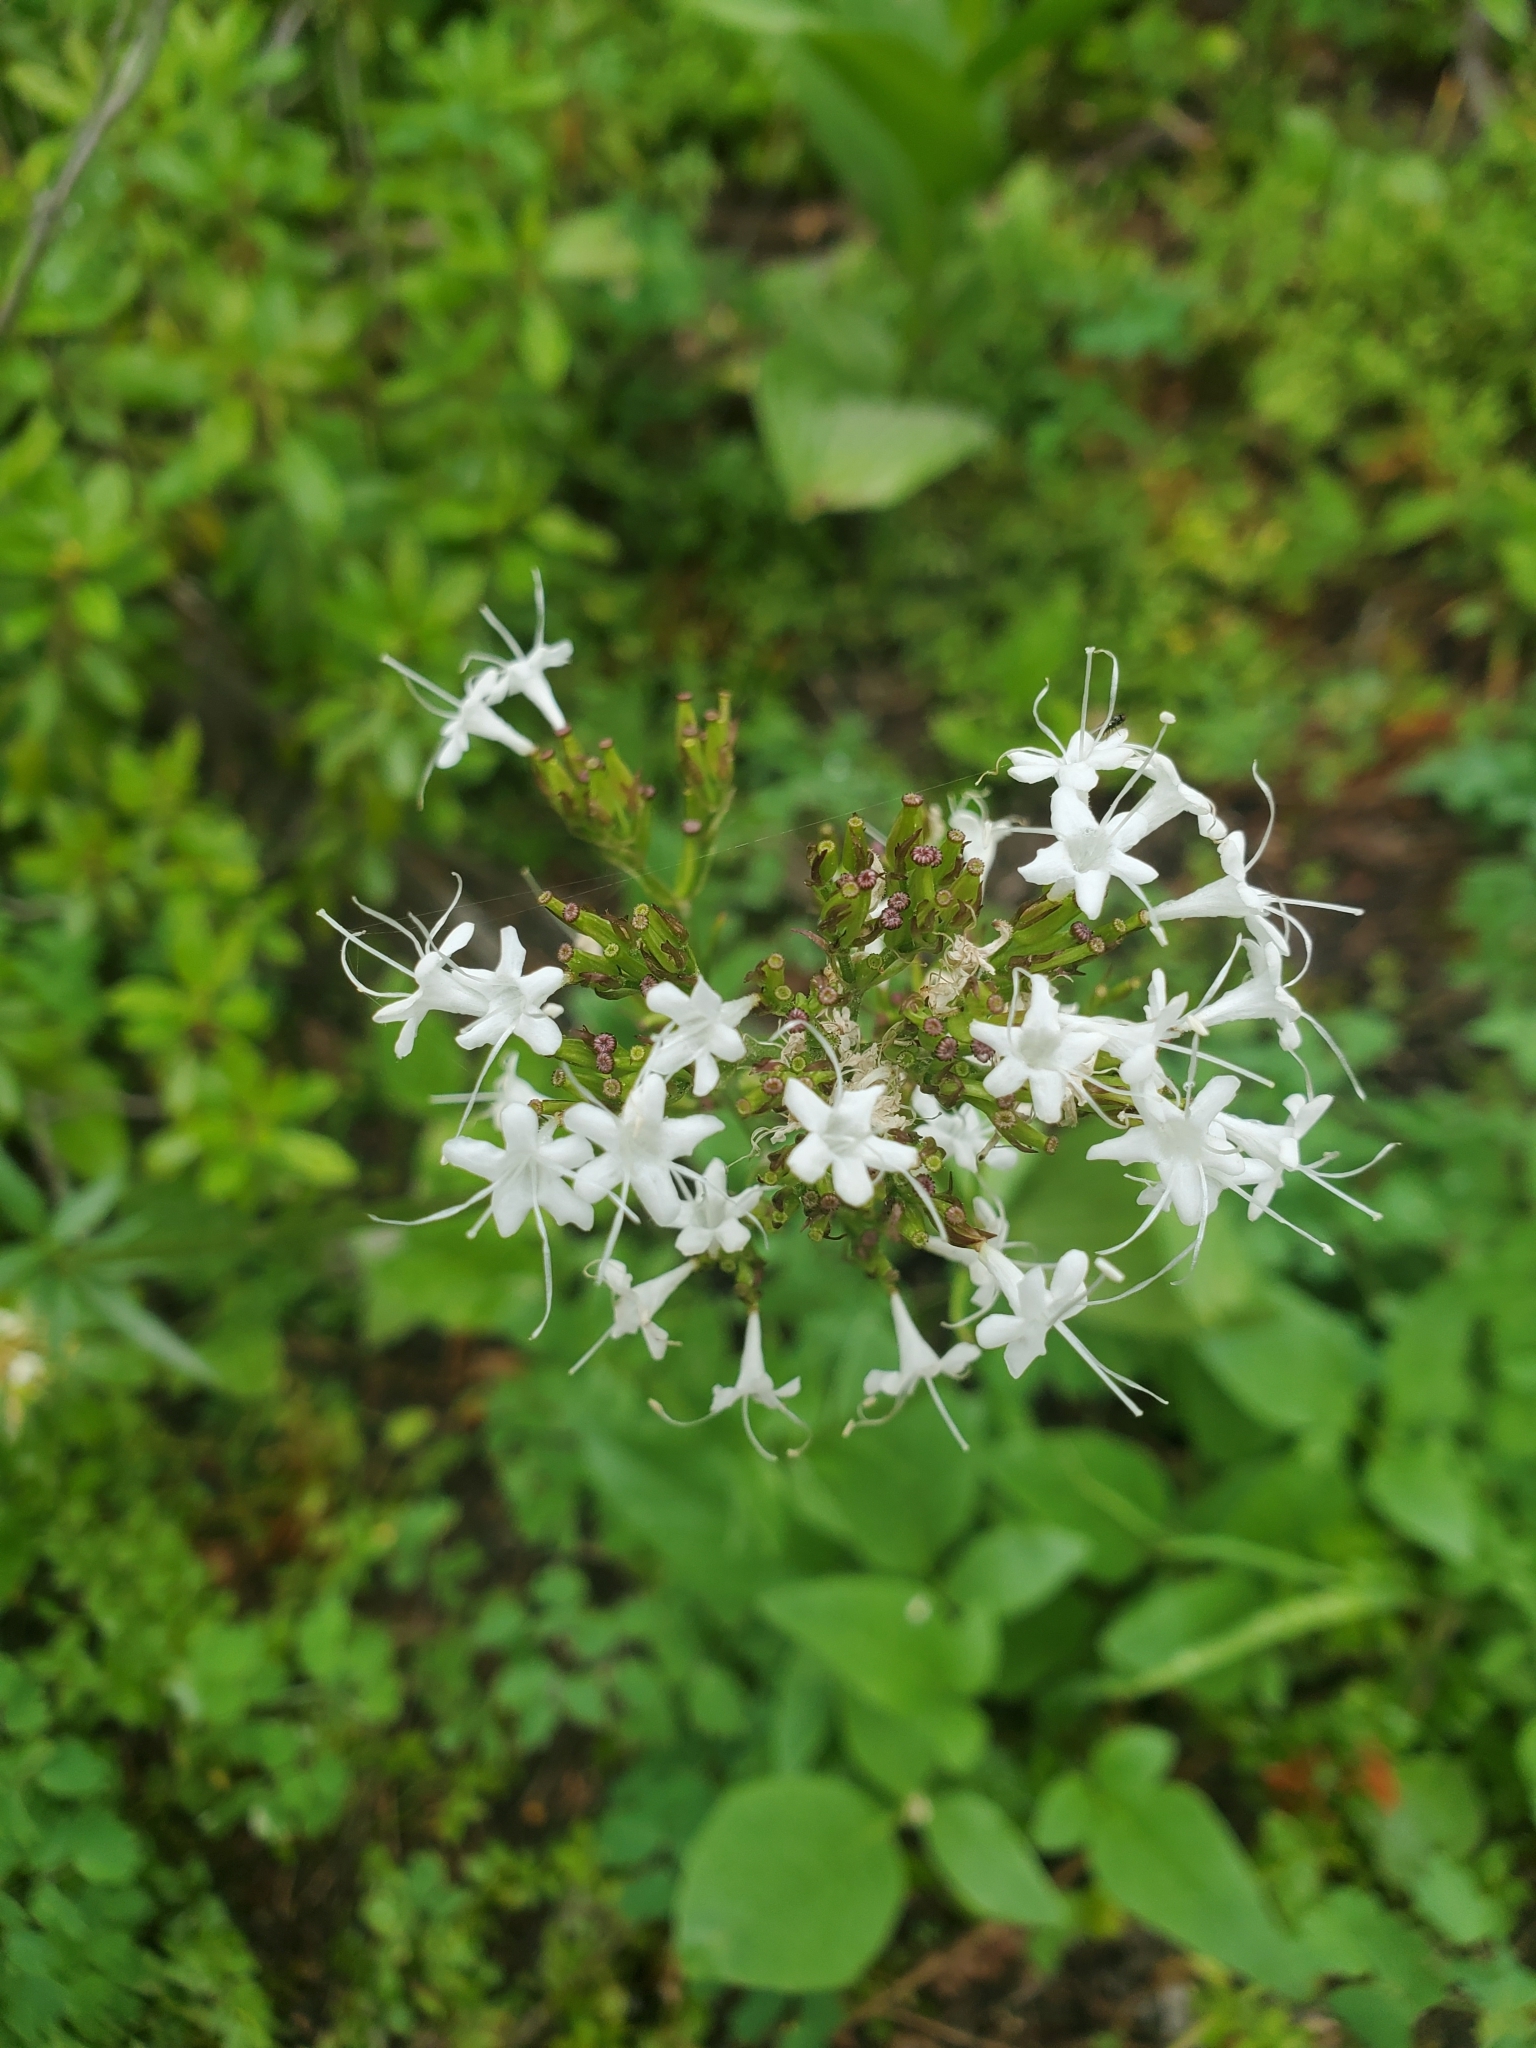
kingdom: Plantae
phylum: Tracheophyta
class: Magnoliopsida
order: Dipsacales
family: Caprifoliaceae
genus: Valeriana
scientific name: Valeriana sitchensis
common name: Pacific valerian
